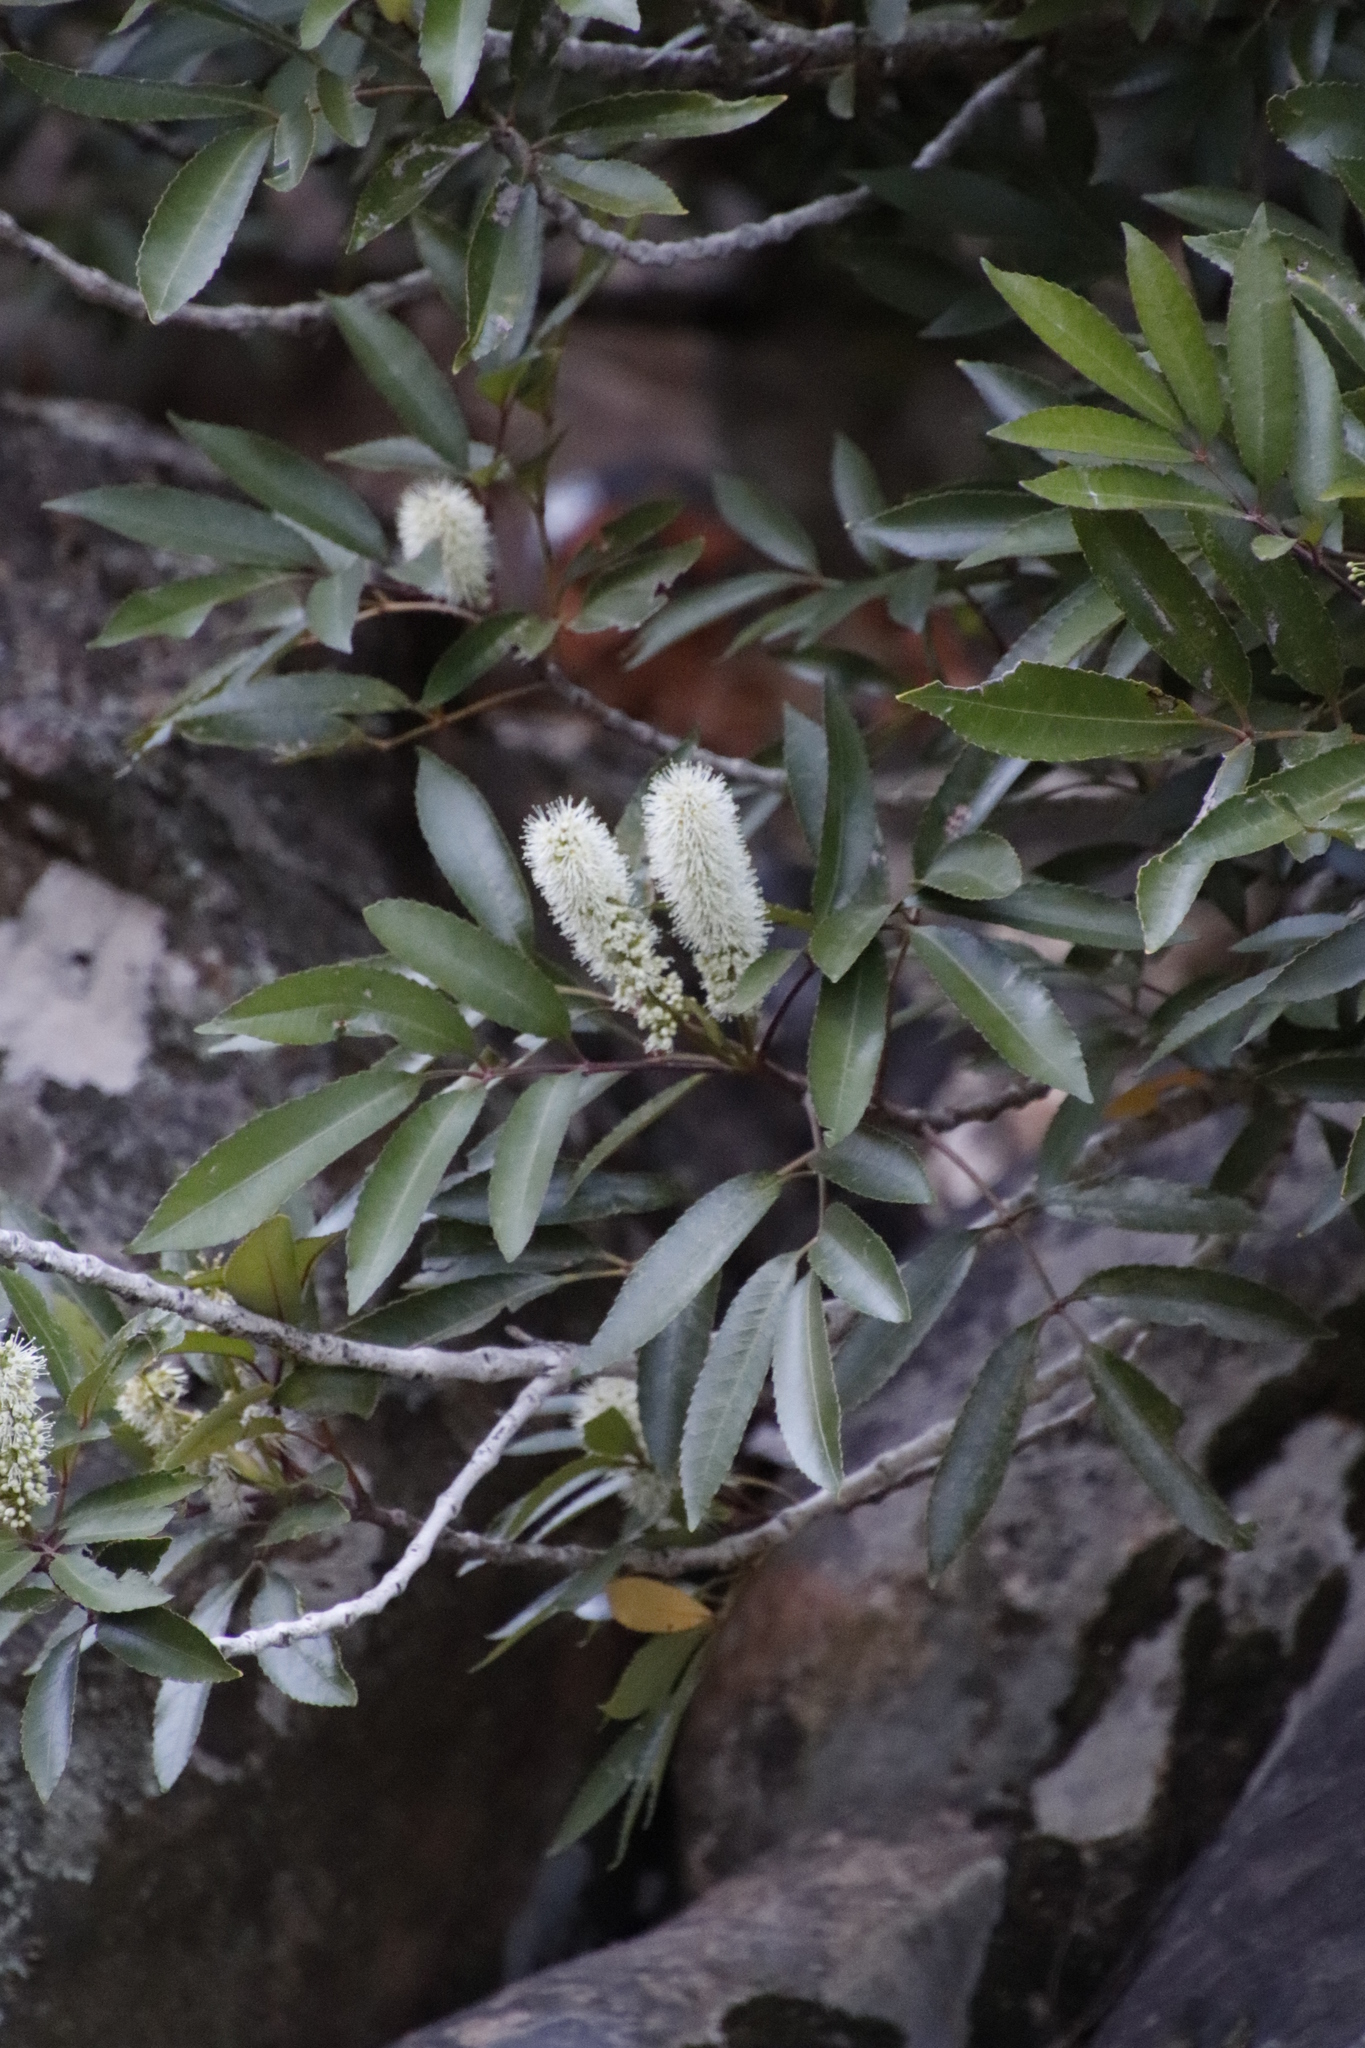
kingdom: Plantae
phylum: Tracheophyta
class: Magnoliopsida
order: Oxalidales
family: Cunoniaceae
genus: Cunonia
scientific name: Cunonia capensis
